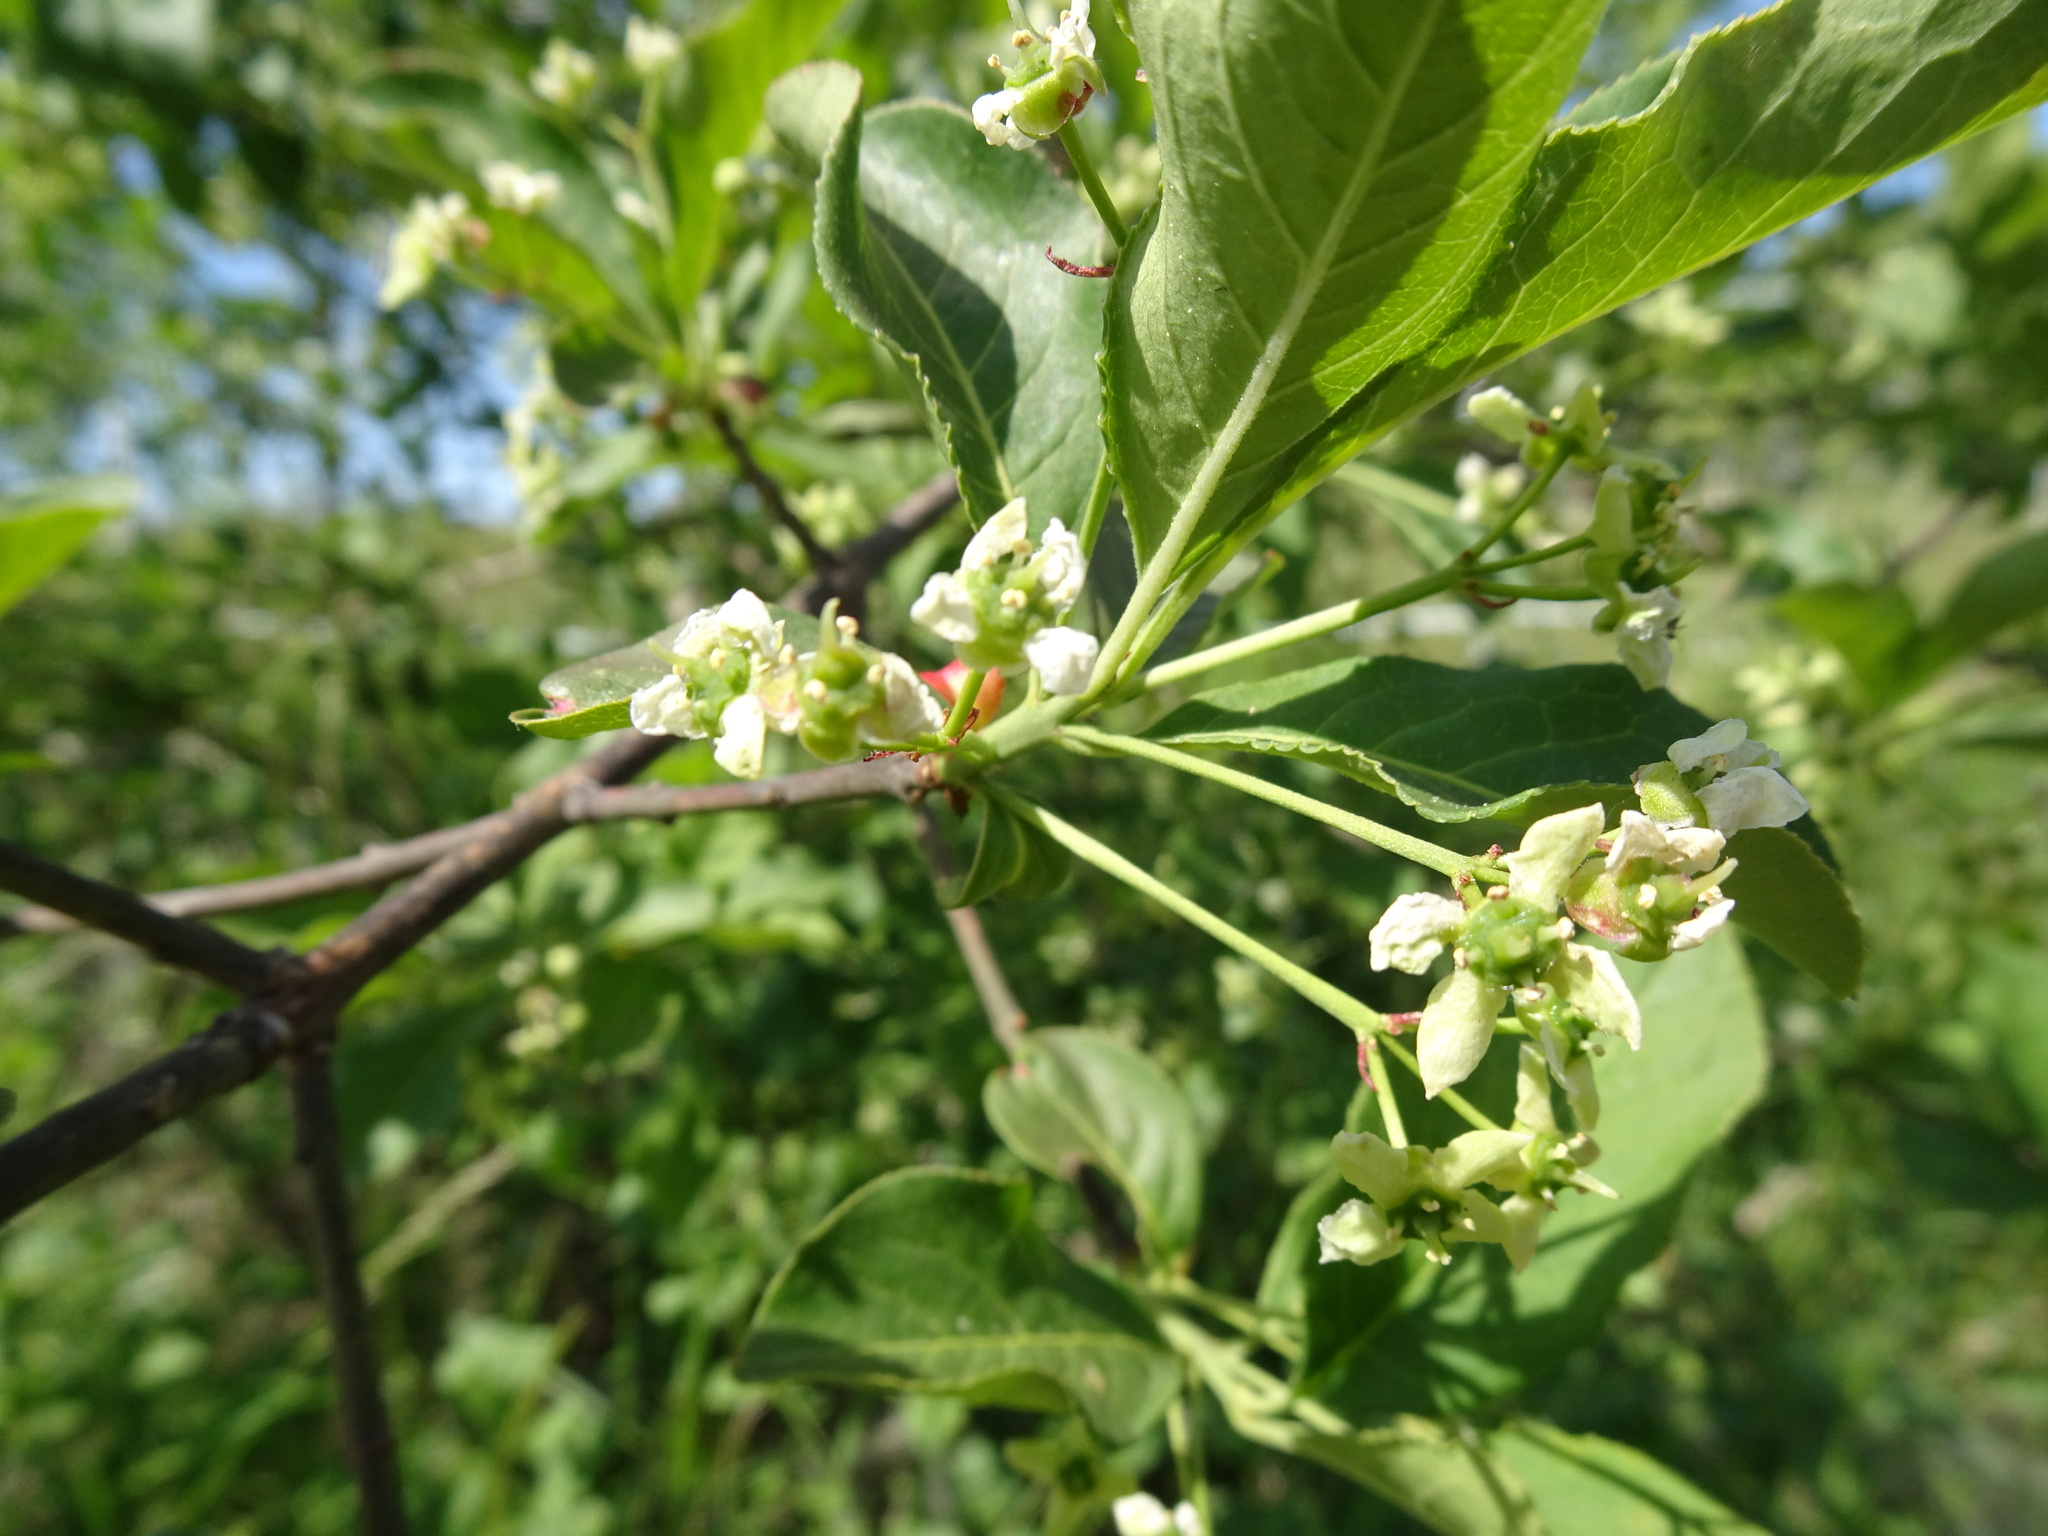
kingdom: Plantae
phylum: Tracheophyta
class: Magnoliopsida
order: Celastrales
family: Celastraceae
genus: Euonymus
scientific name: Euonymus europaeus
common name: Spindle
